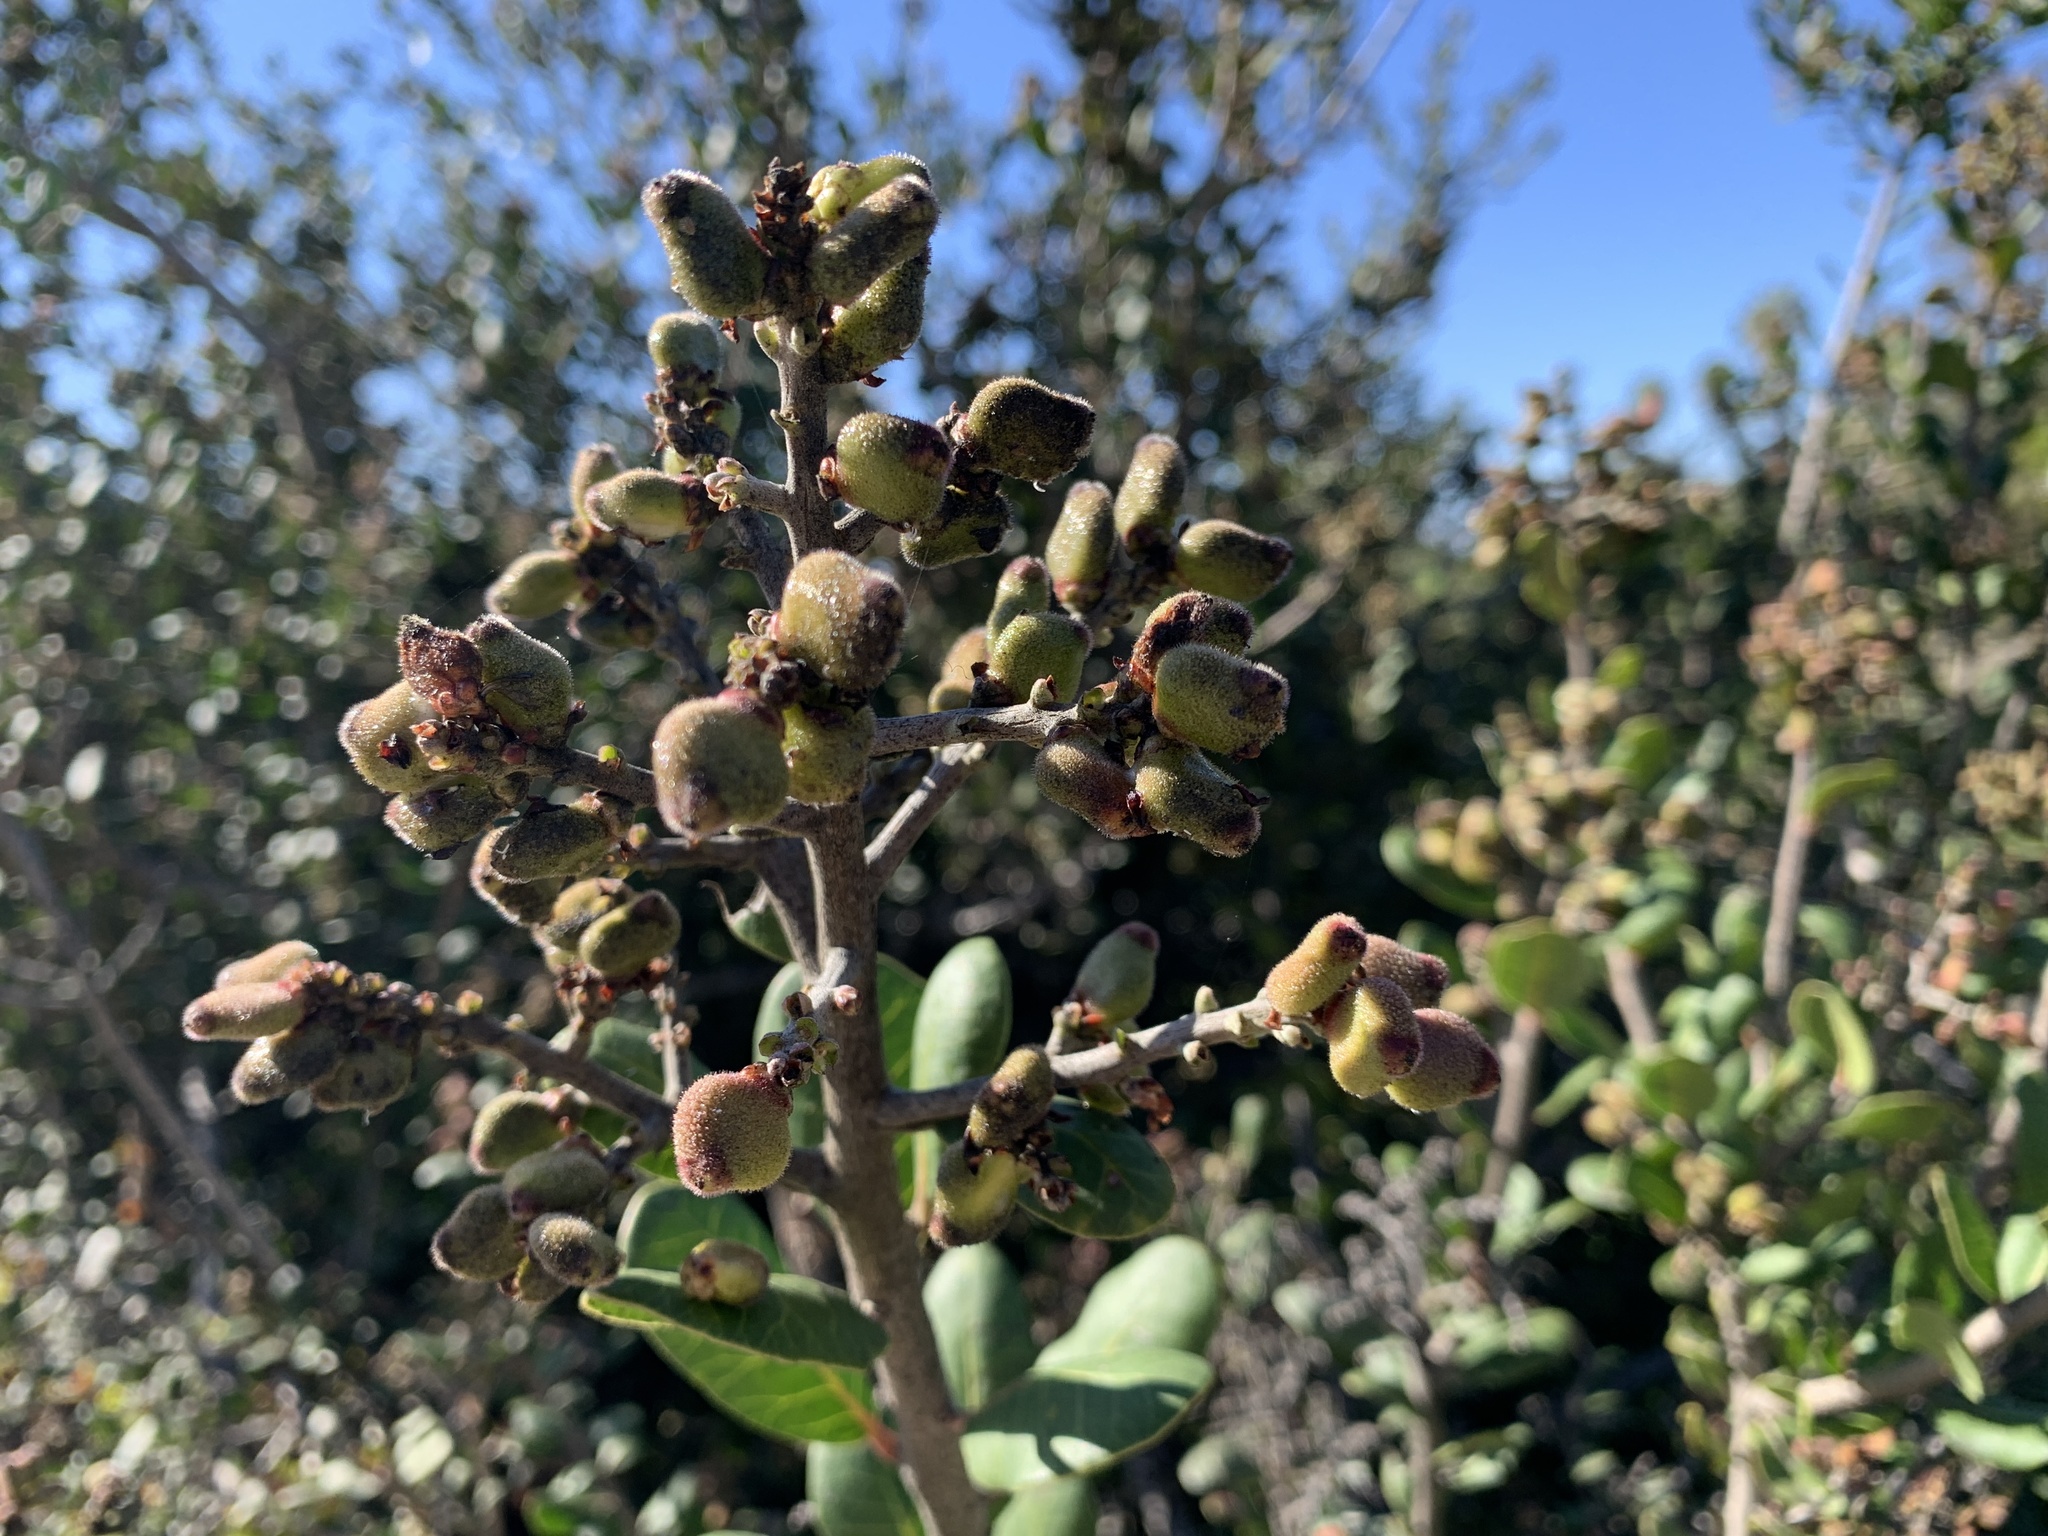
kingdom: Plantae
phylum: Tracheophyta
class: Magnoliopsida
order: Sapindales
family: Anacardiaceae
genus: Rhus
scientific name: Rhus integrifolia
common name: Lemonade sumac
